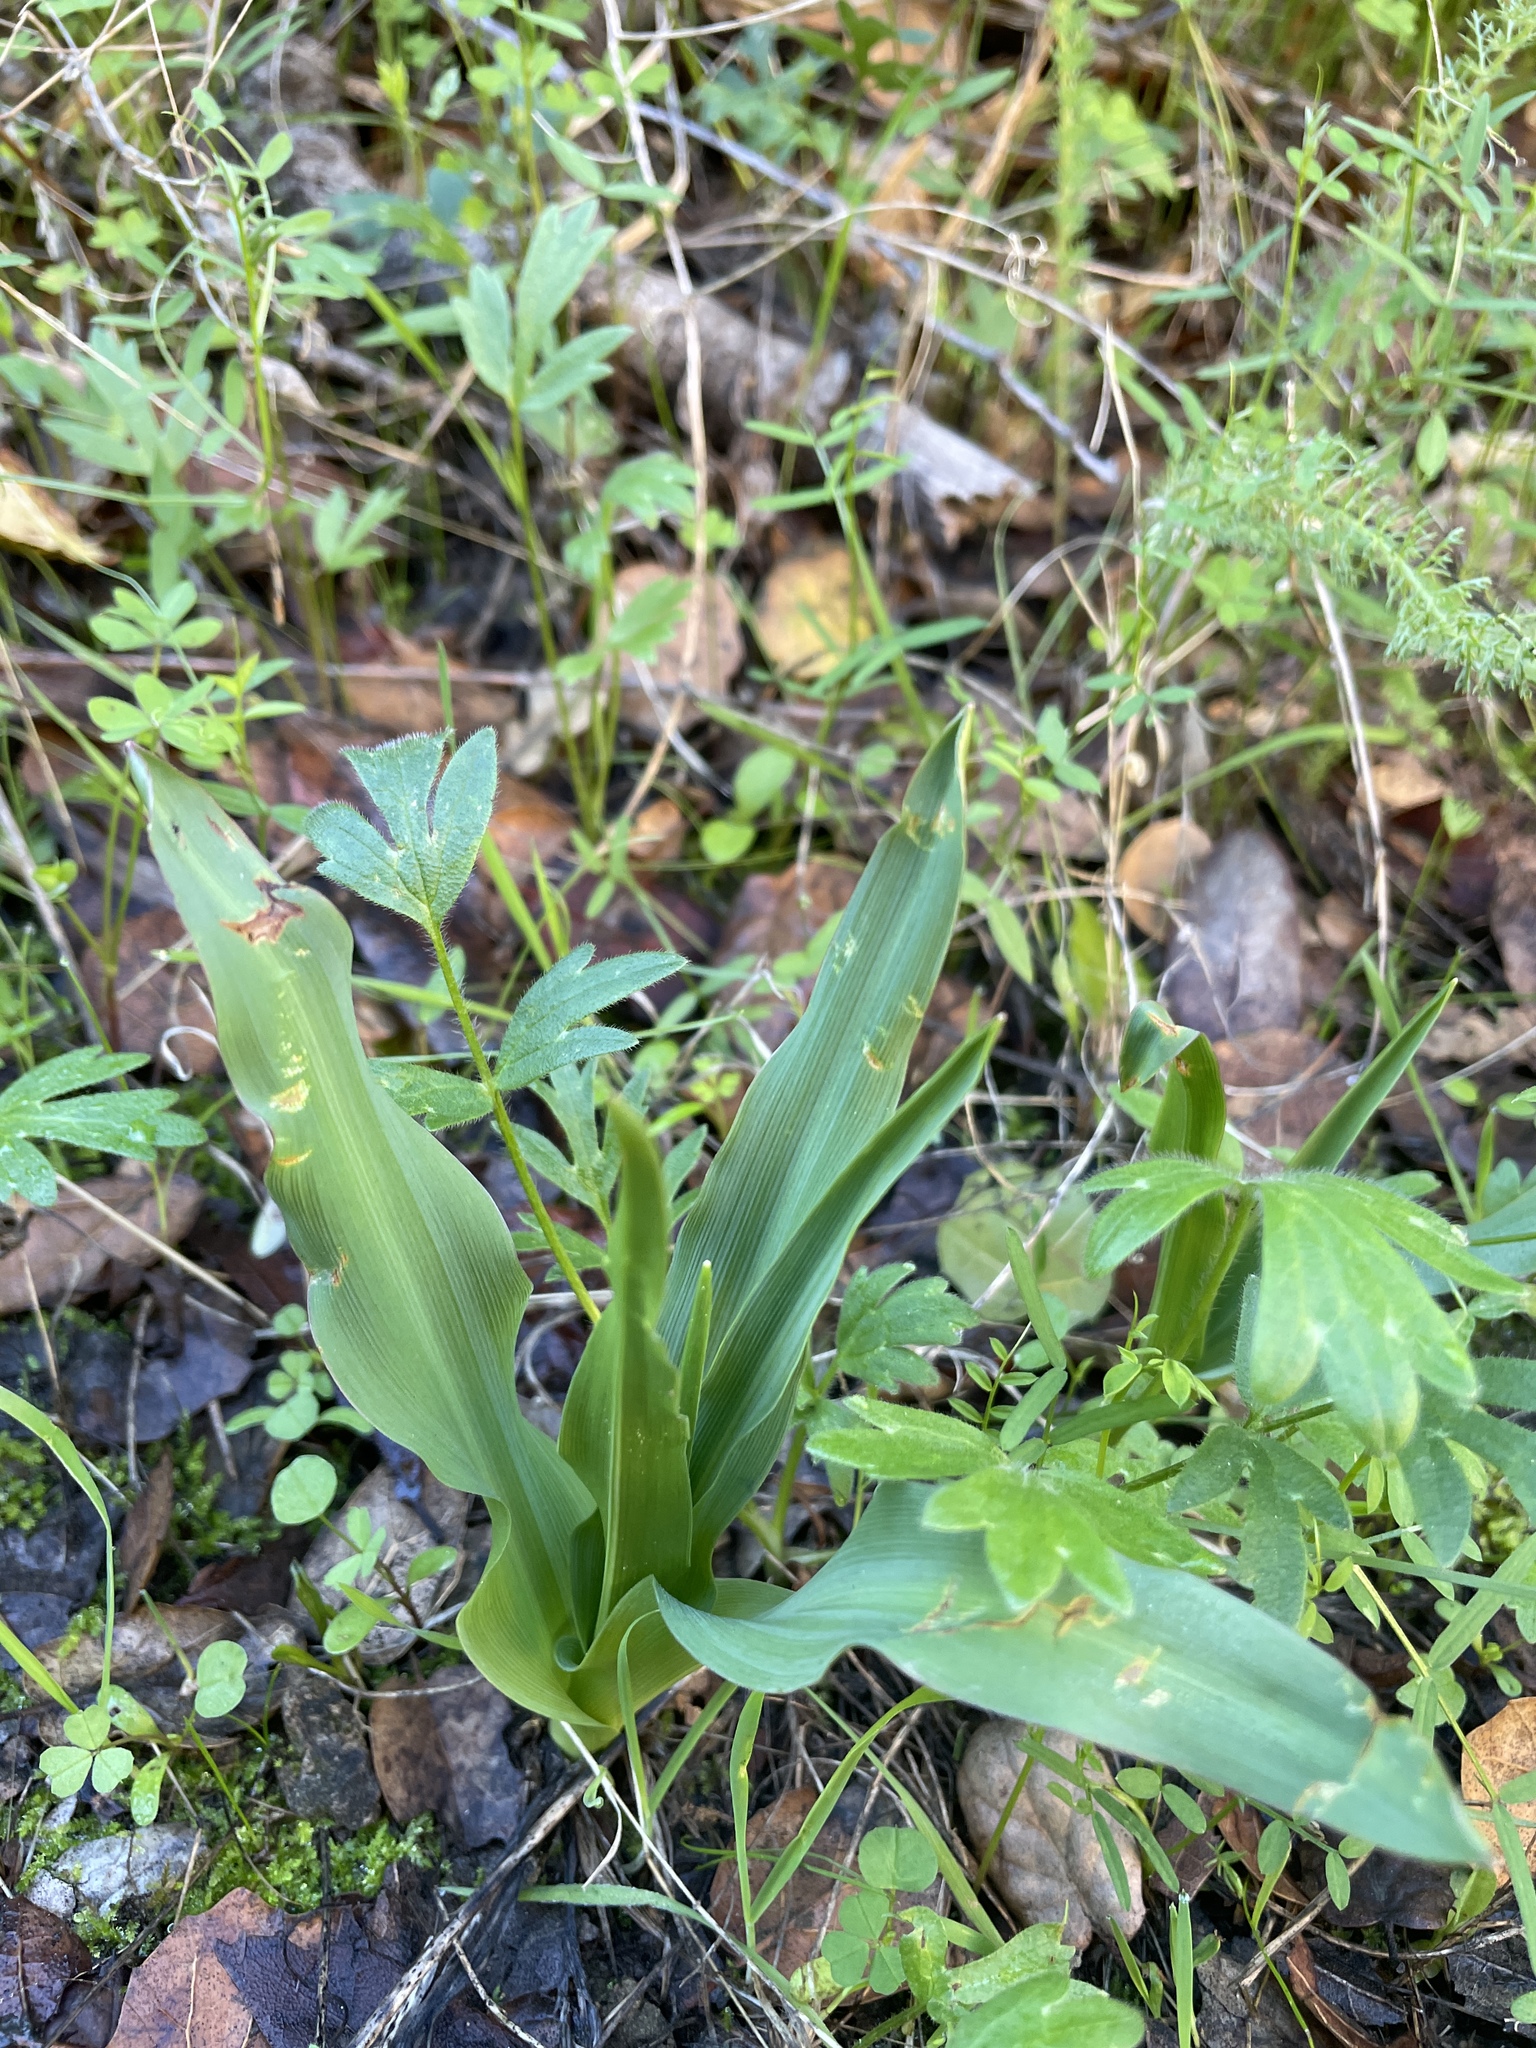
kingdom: Plantae
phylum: Tracheophyta
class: Liliopsida
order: Asparagales
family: Asparagaceae
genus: Chlorogalum
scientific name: Chlorogalum pomeridianum
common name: Amole
